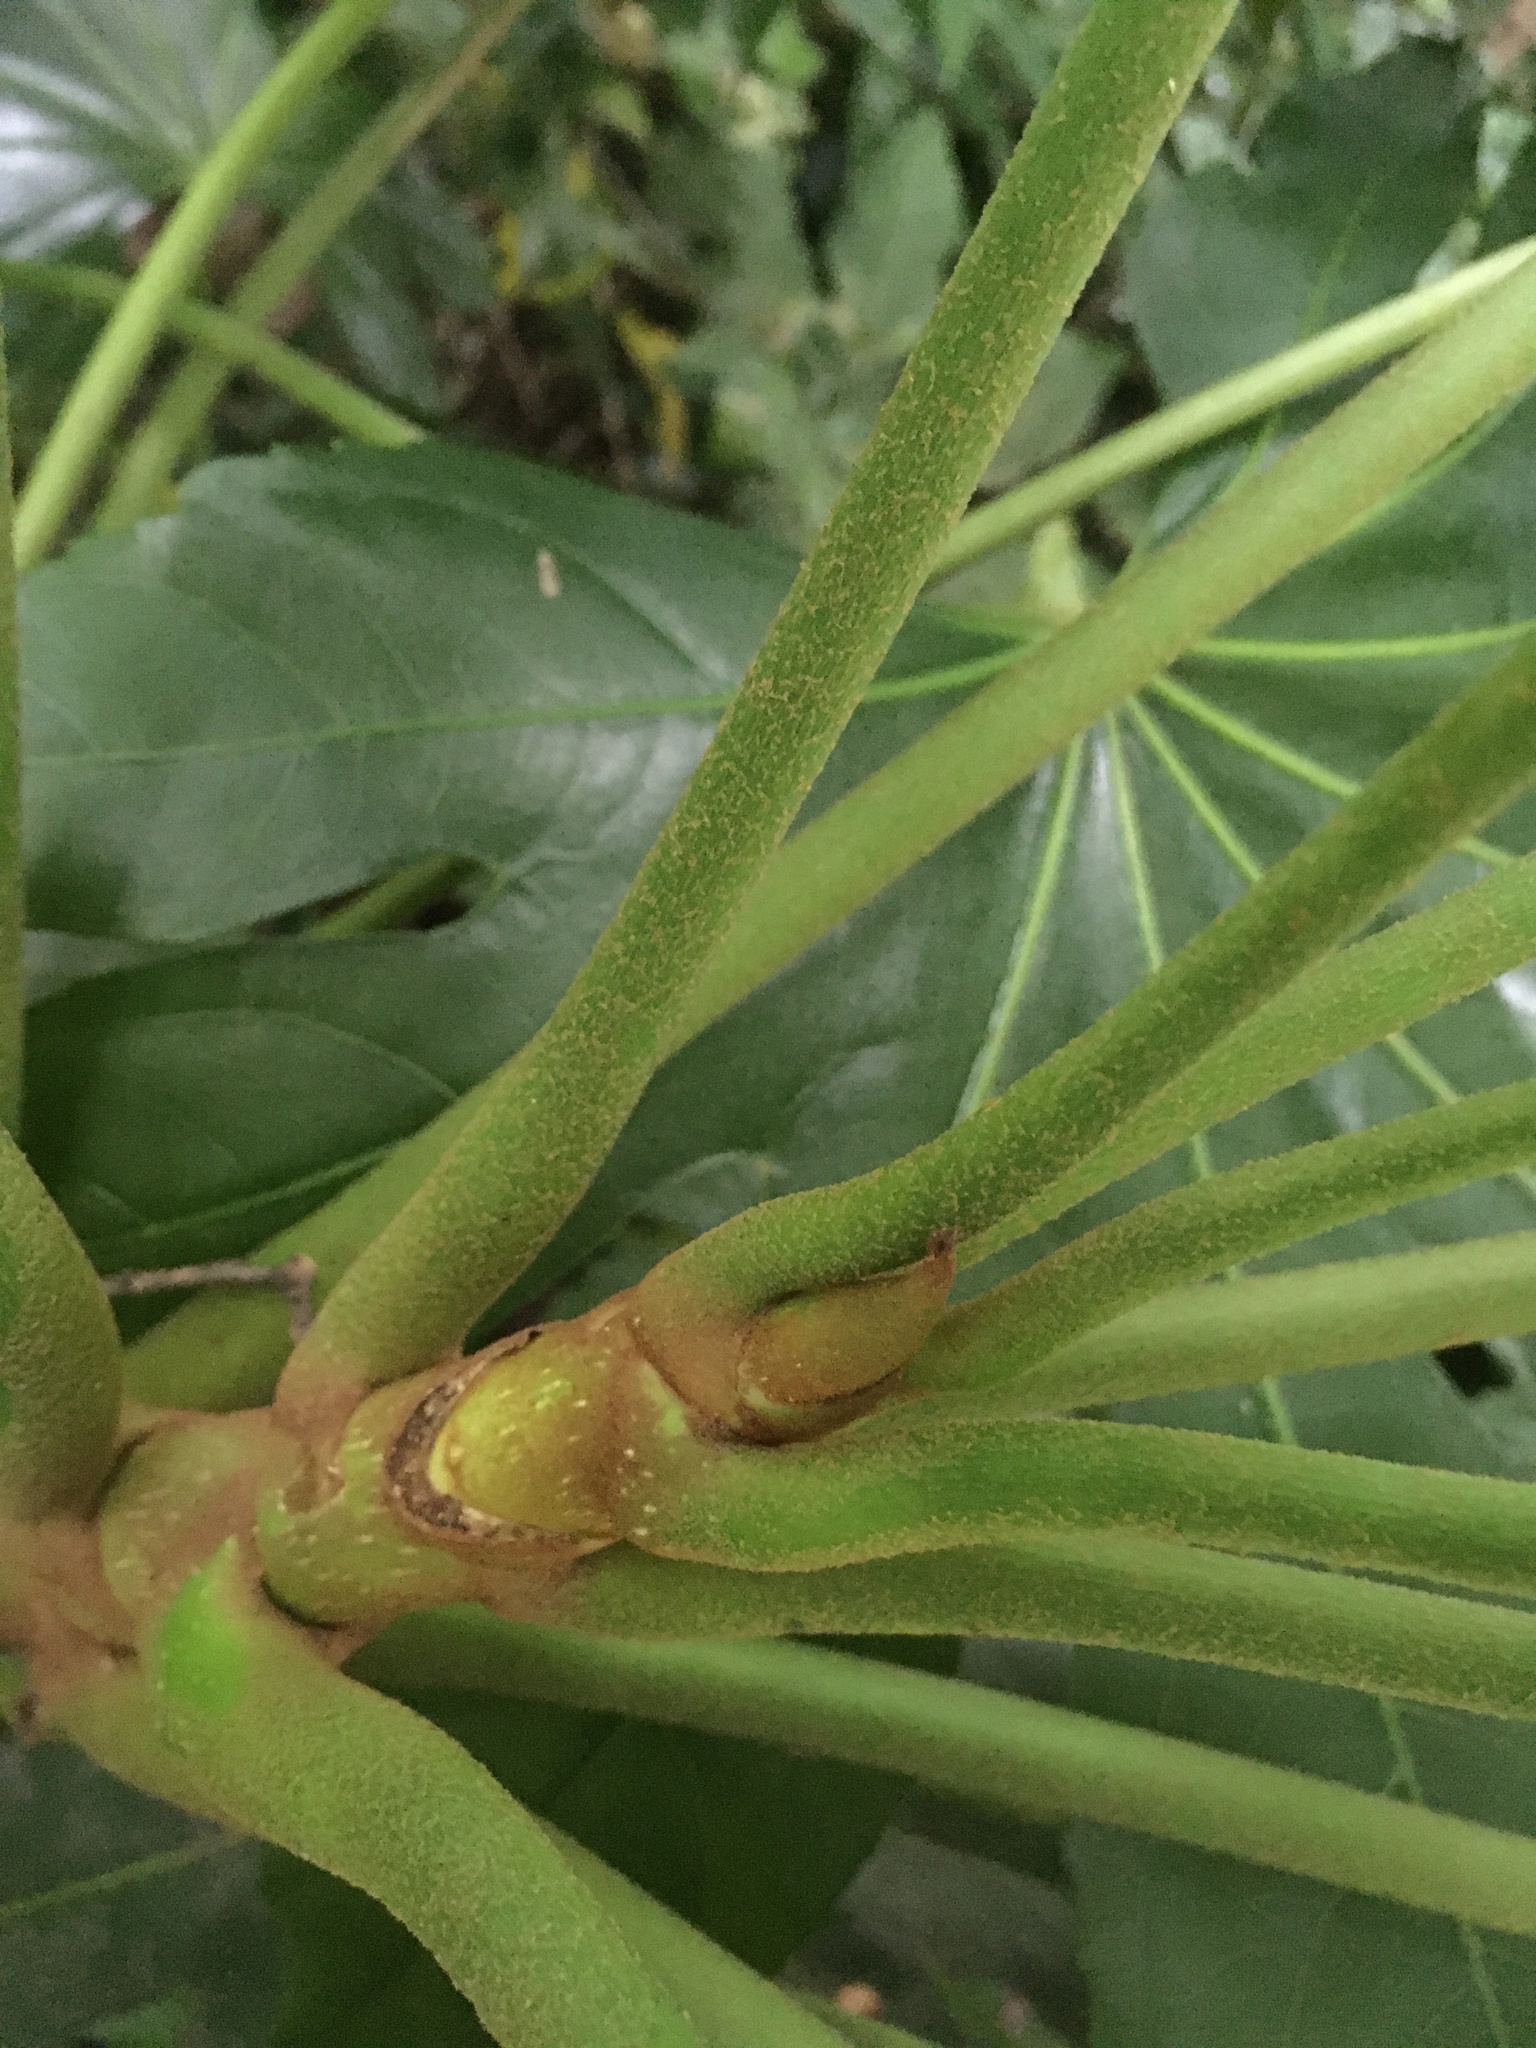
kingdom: Plantae
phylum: Tracheophyta
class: Magnoliopsida
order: Apiales
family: Araliaceae
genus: Fatsia
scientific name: Fatsia japonica
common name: Fatsia
